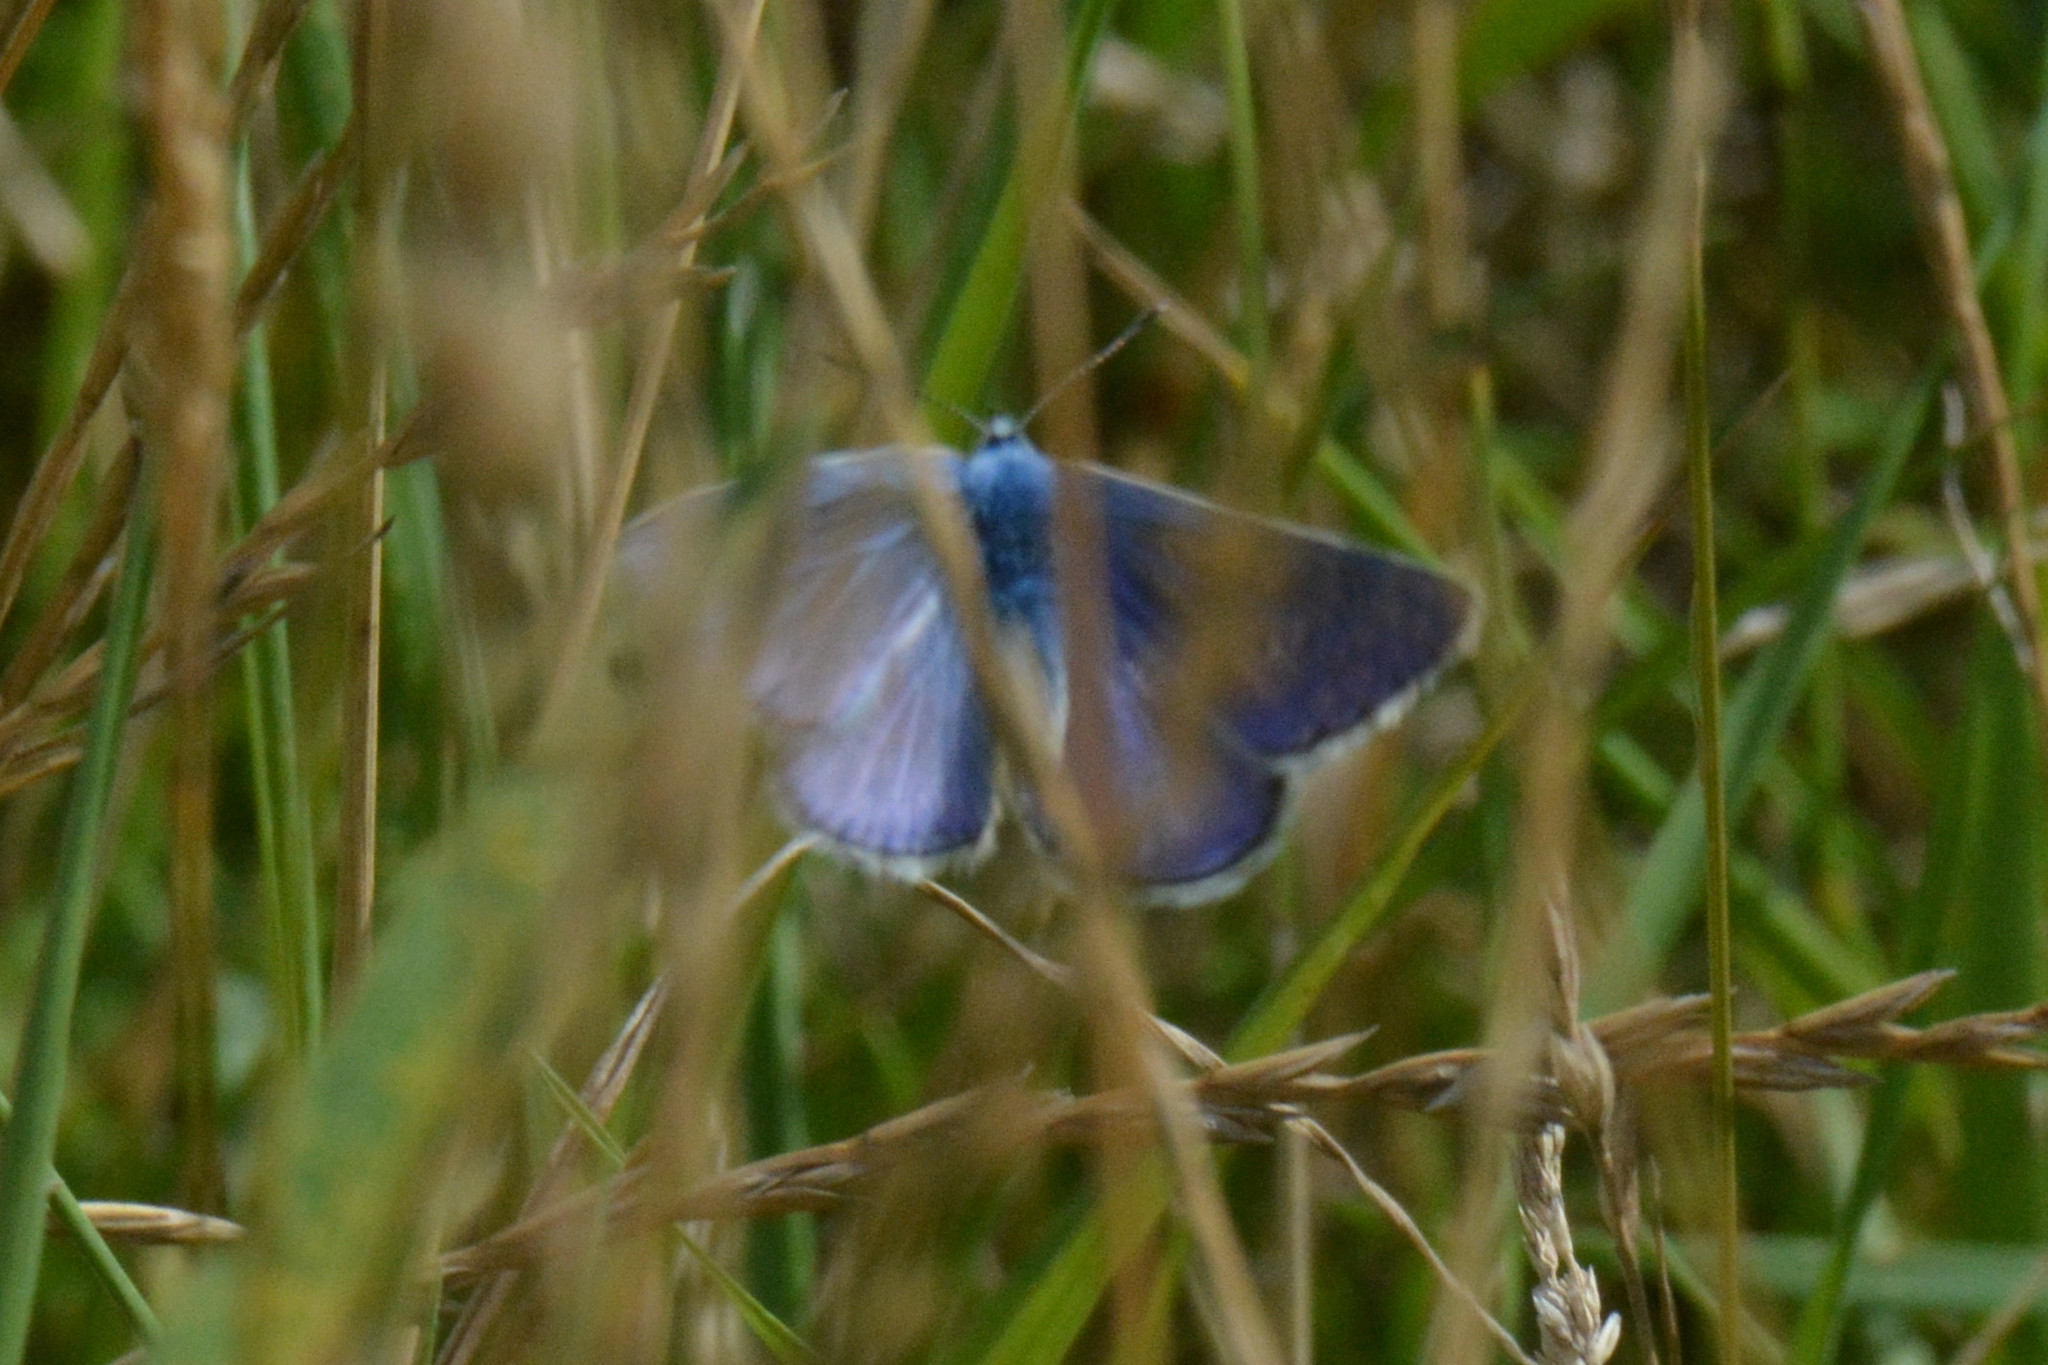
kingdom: Animalia
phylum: Arthropoda
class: Insecta
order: Lepidoptera
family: Lycaenidae
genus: Polyommatus
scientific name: Polyommatus icarus
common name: Common blue
